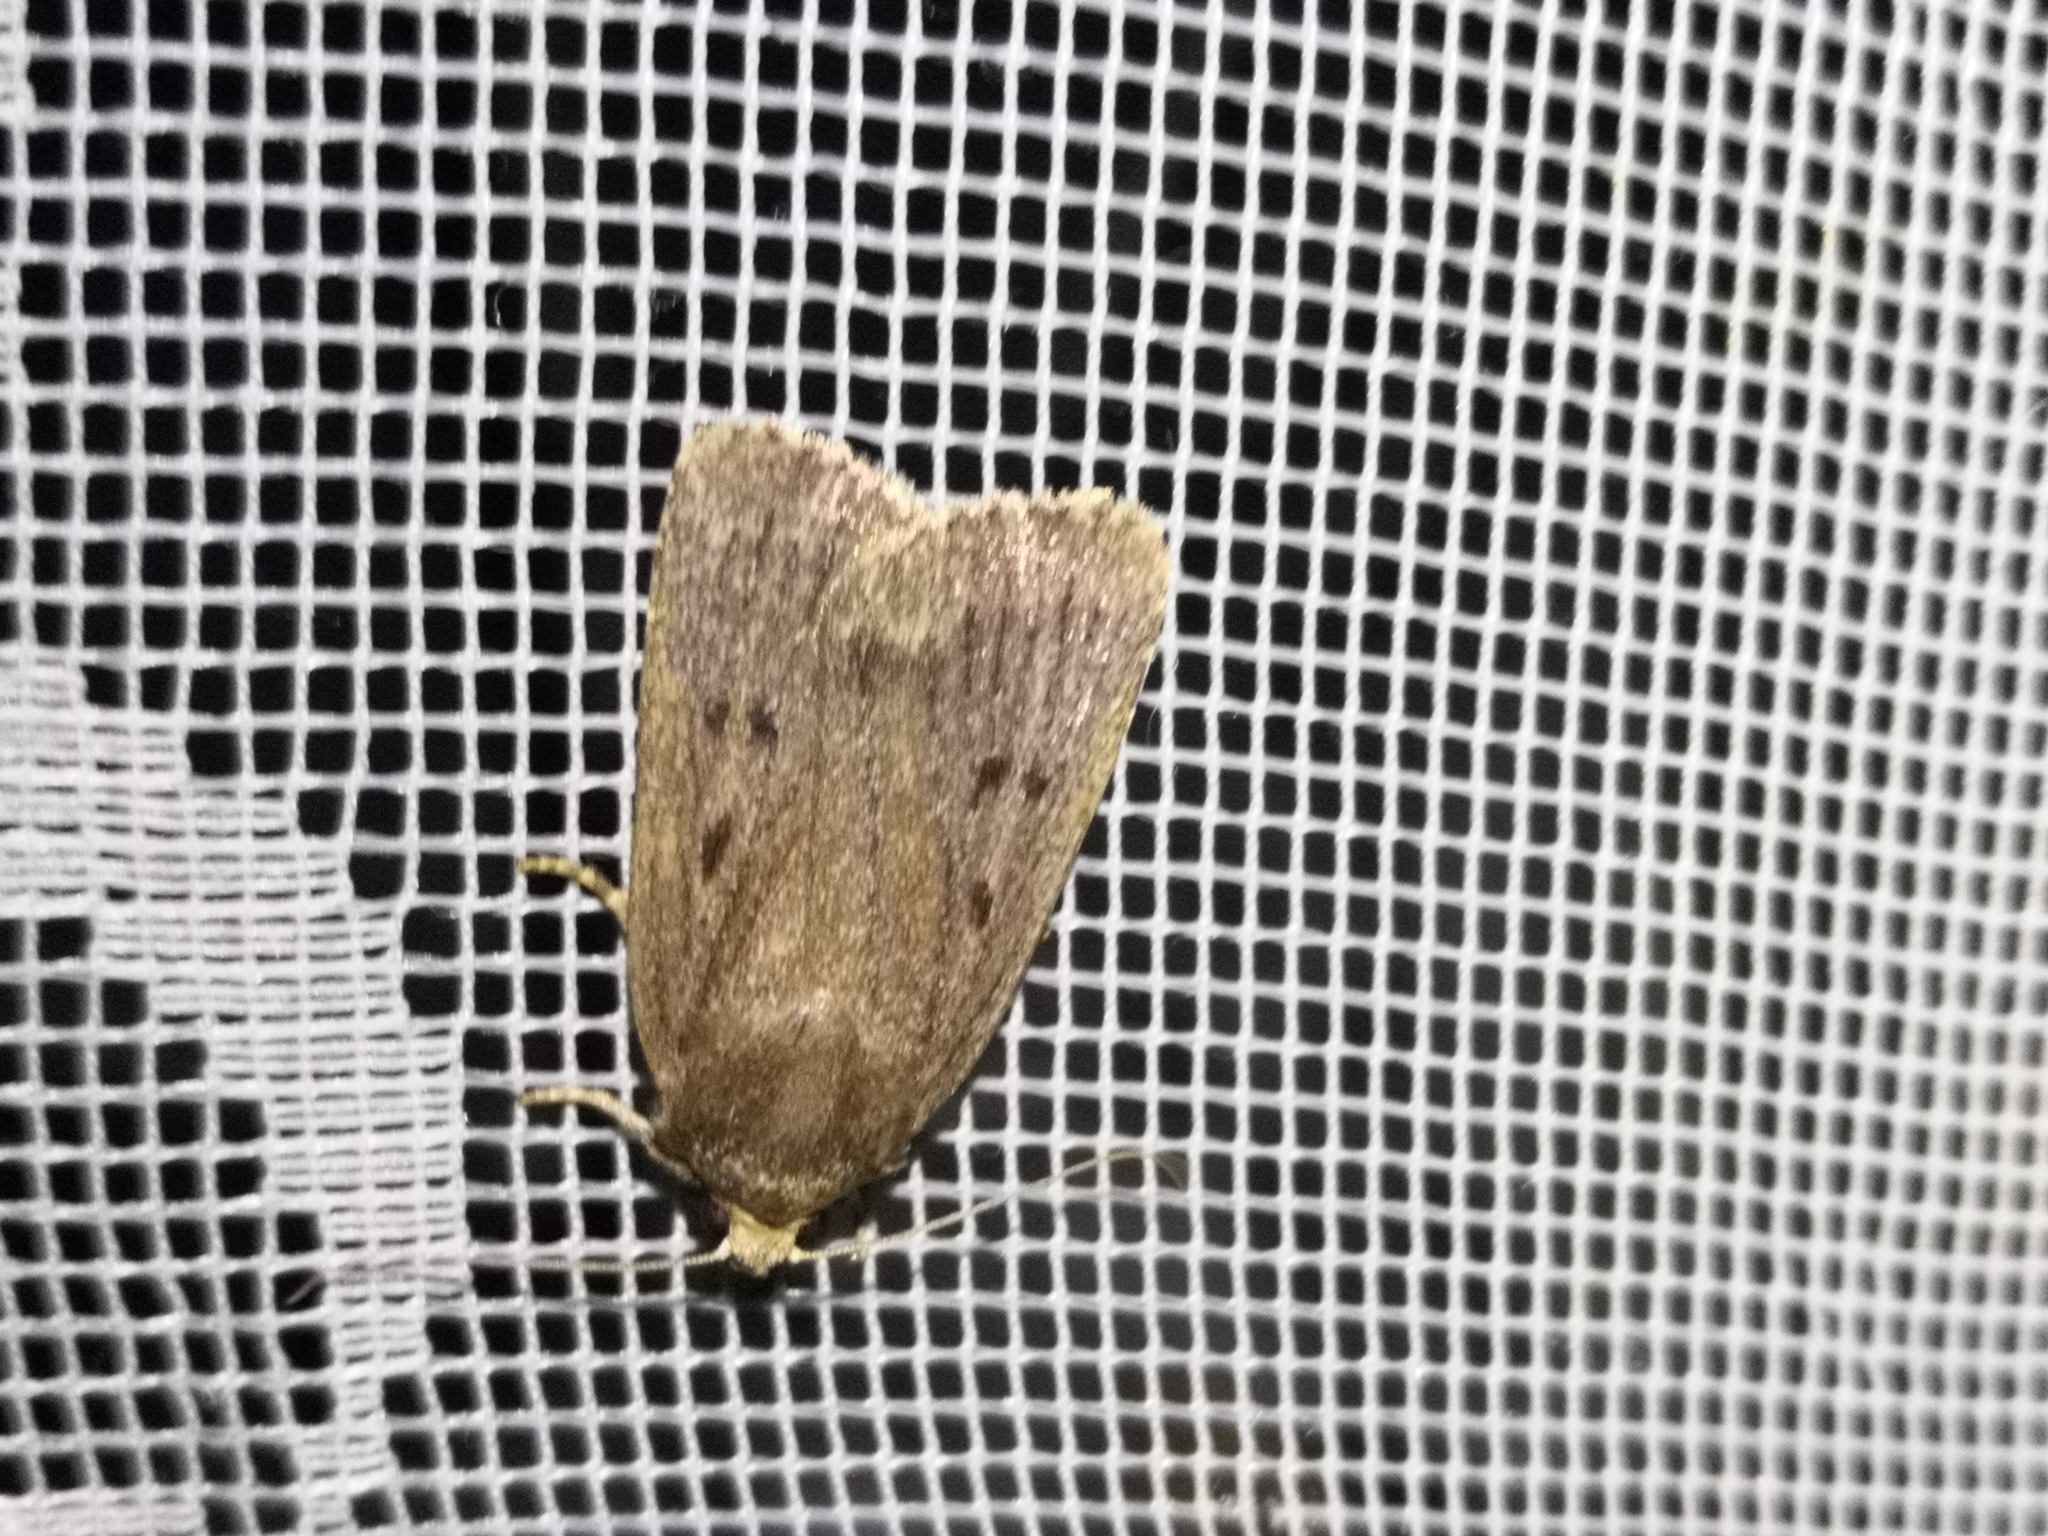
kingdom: Animalia
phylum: Arthropoda
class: Insecta
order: Lepidoptera
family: Noctuidae
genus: Amphipyra
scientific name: Amphipyra tragopoginis
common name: Mouse moth
